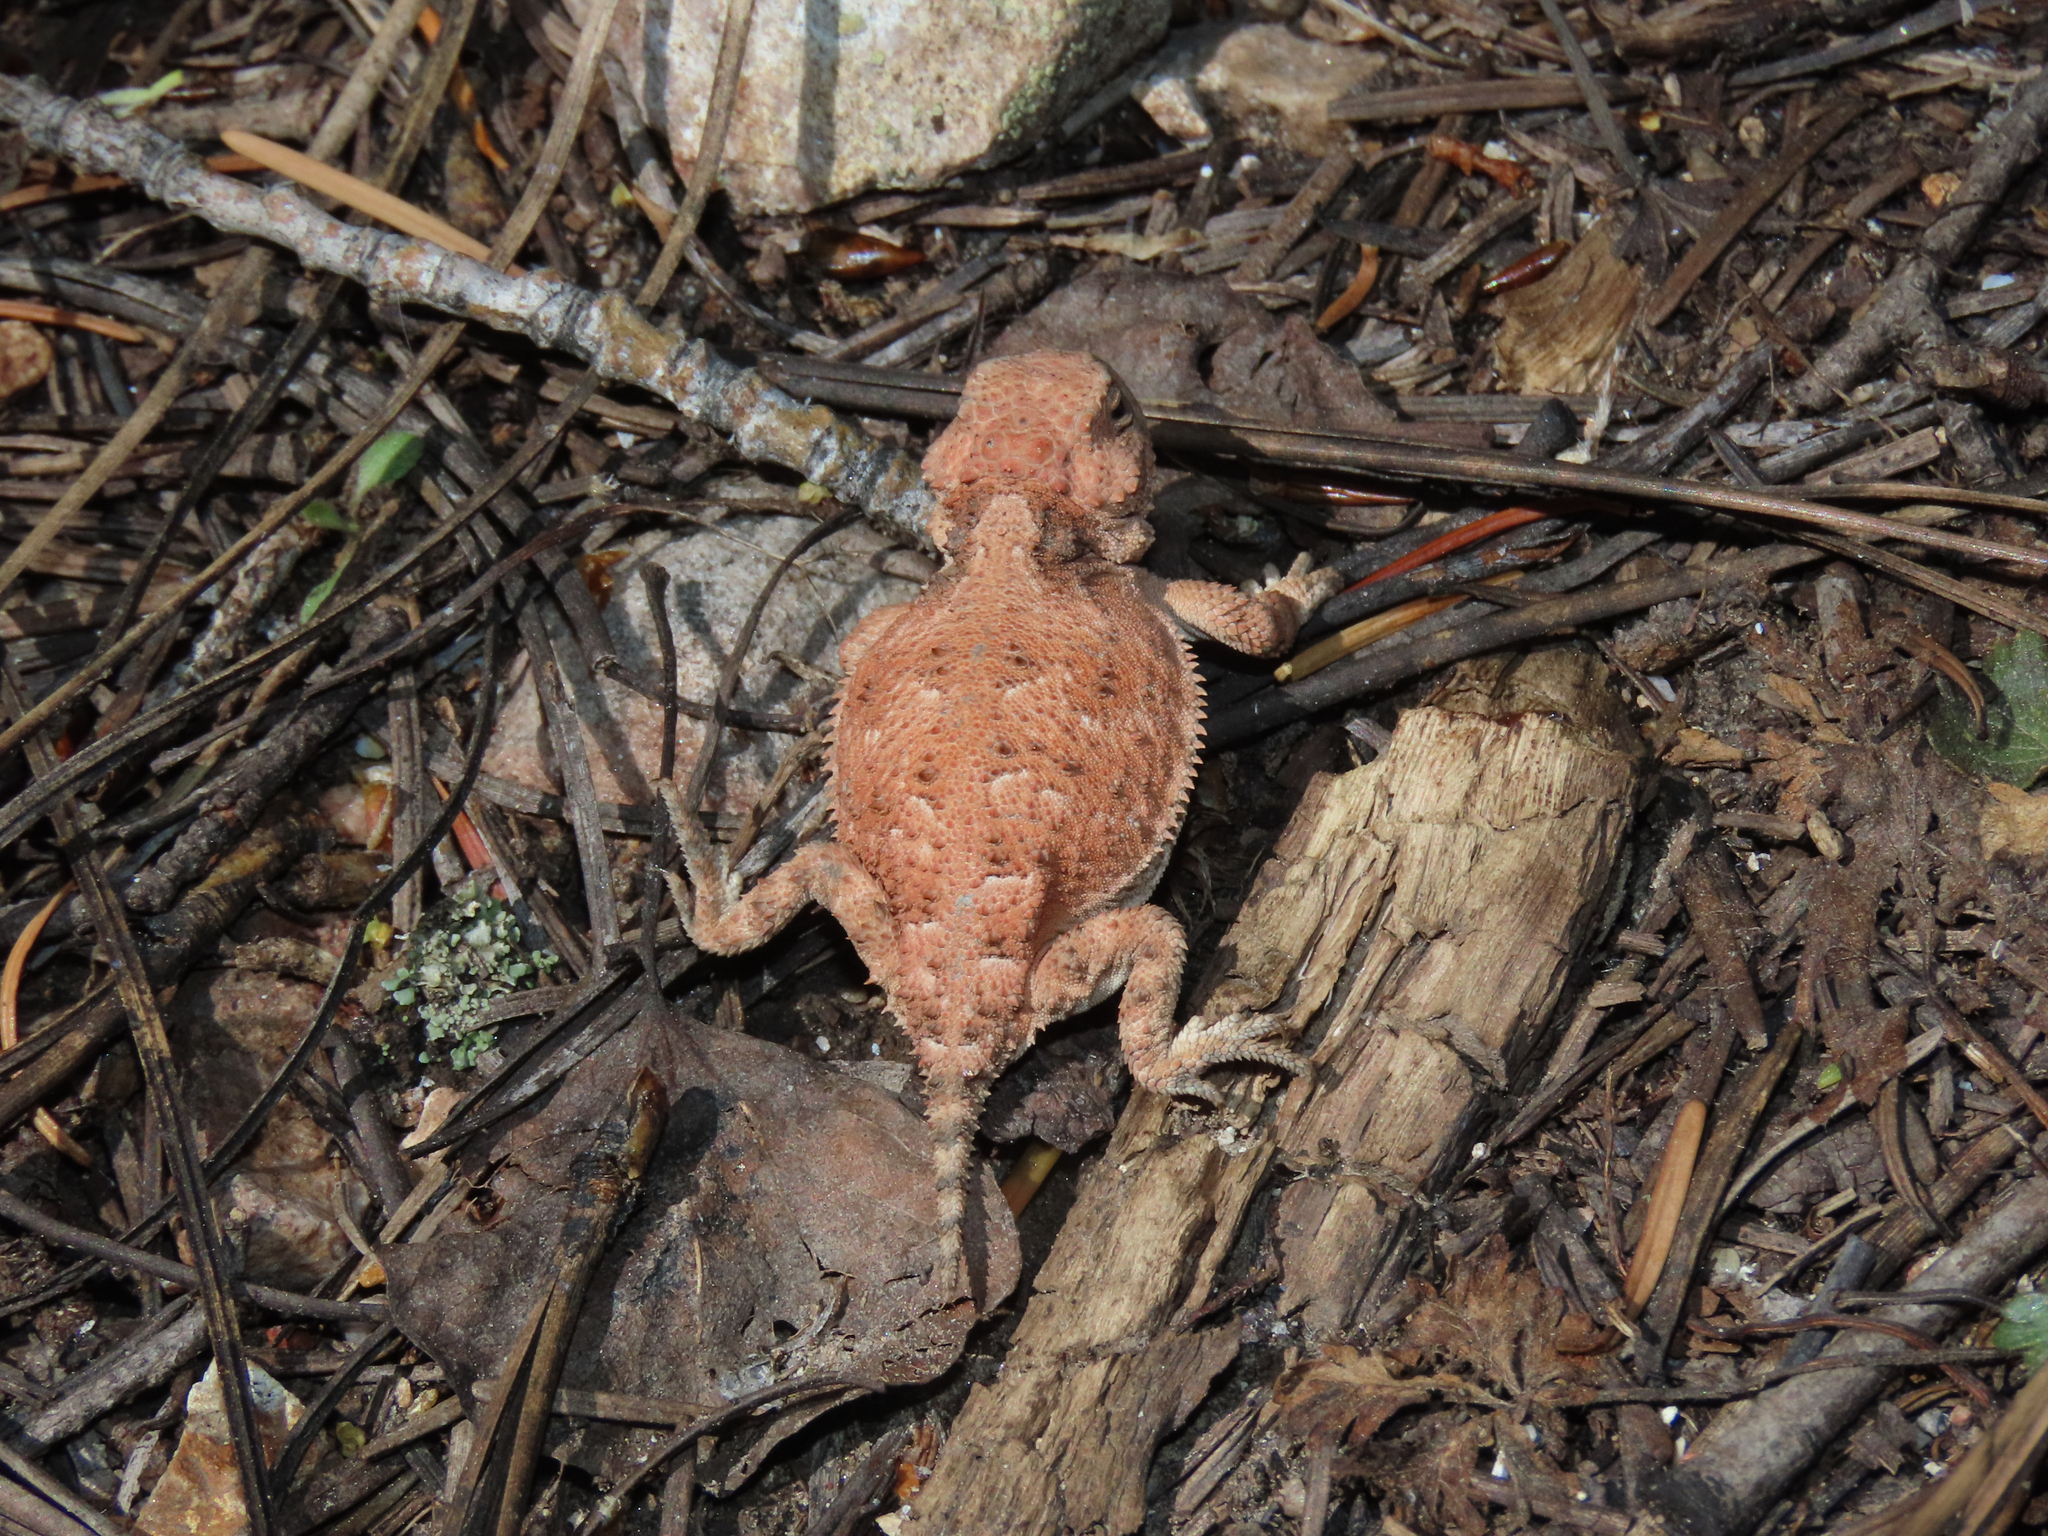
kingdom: Animalia
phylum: Chordata
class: Squamata
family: Phrynosomatidae
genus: Phrynosoma
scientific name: Phrynosoma hernandesi
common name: Greater short-horned lizard
